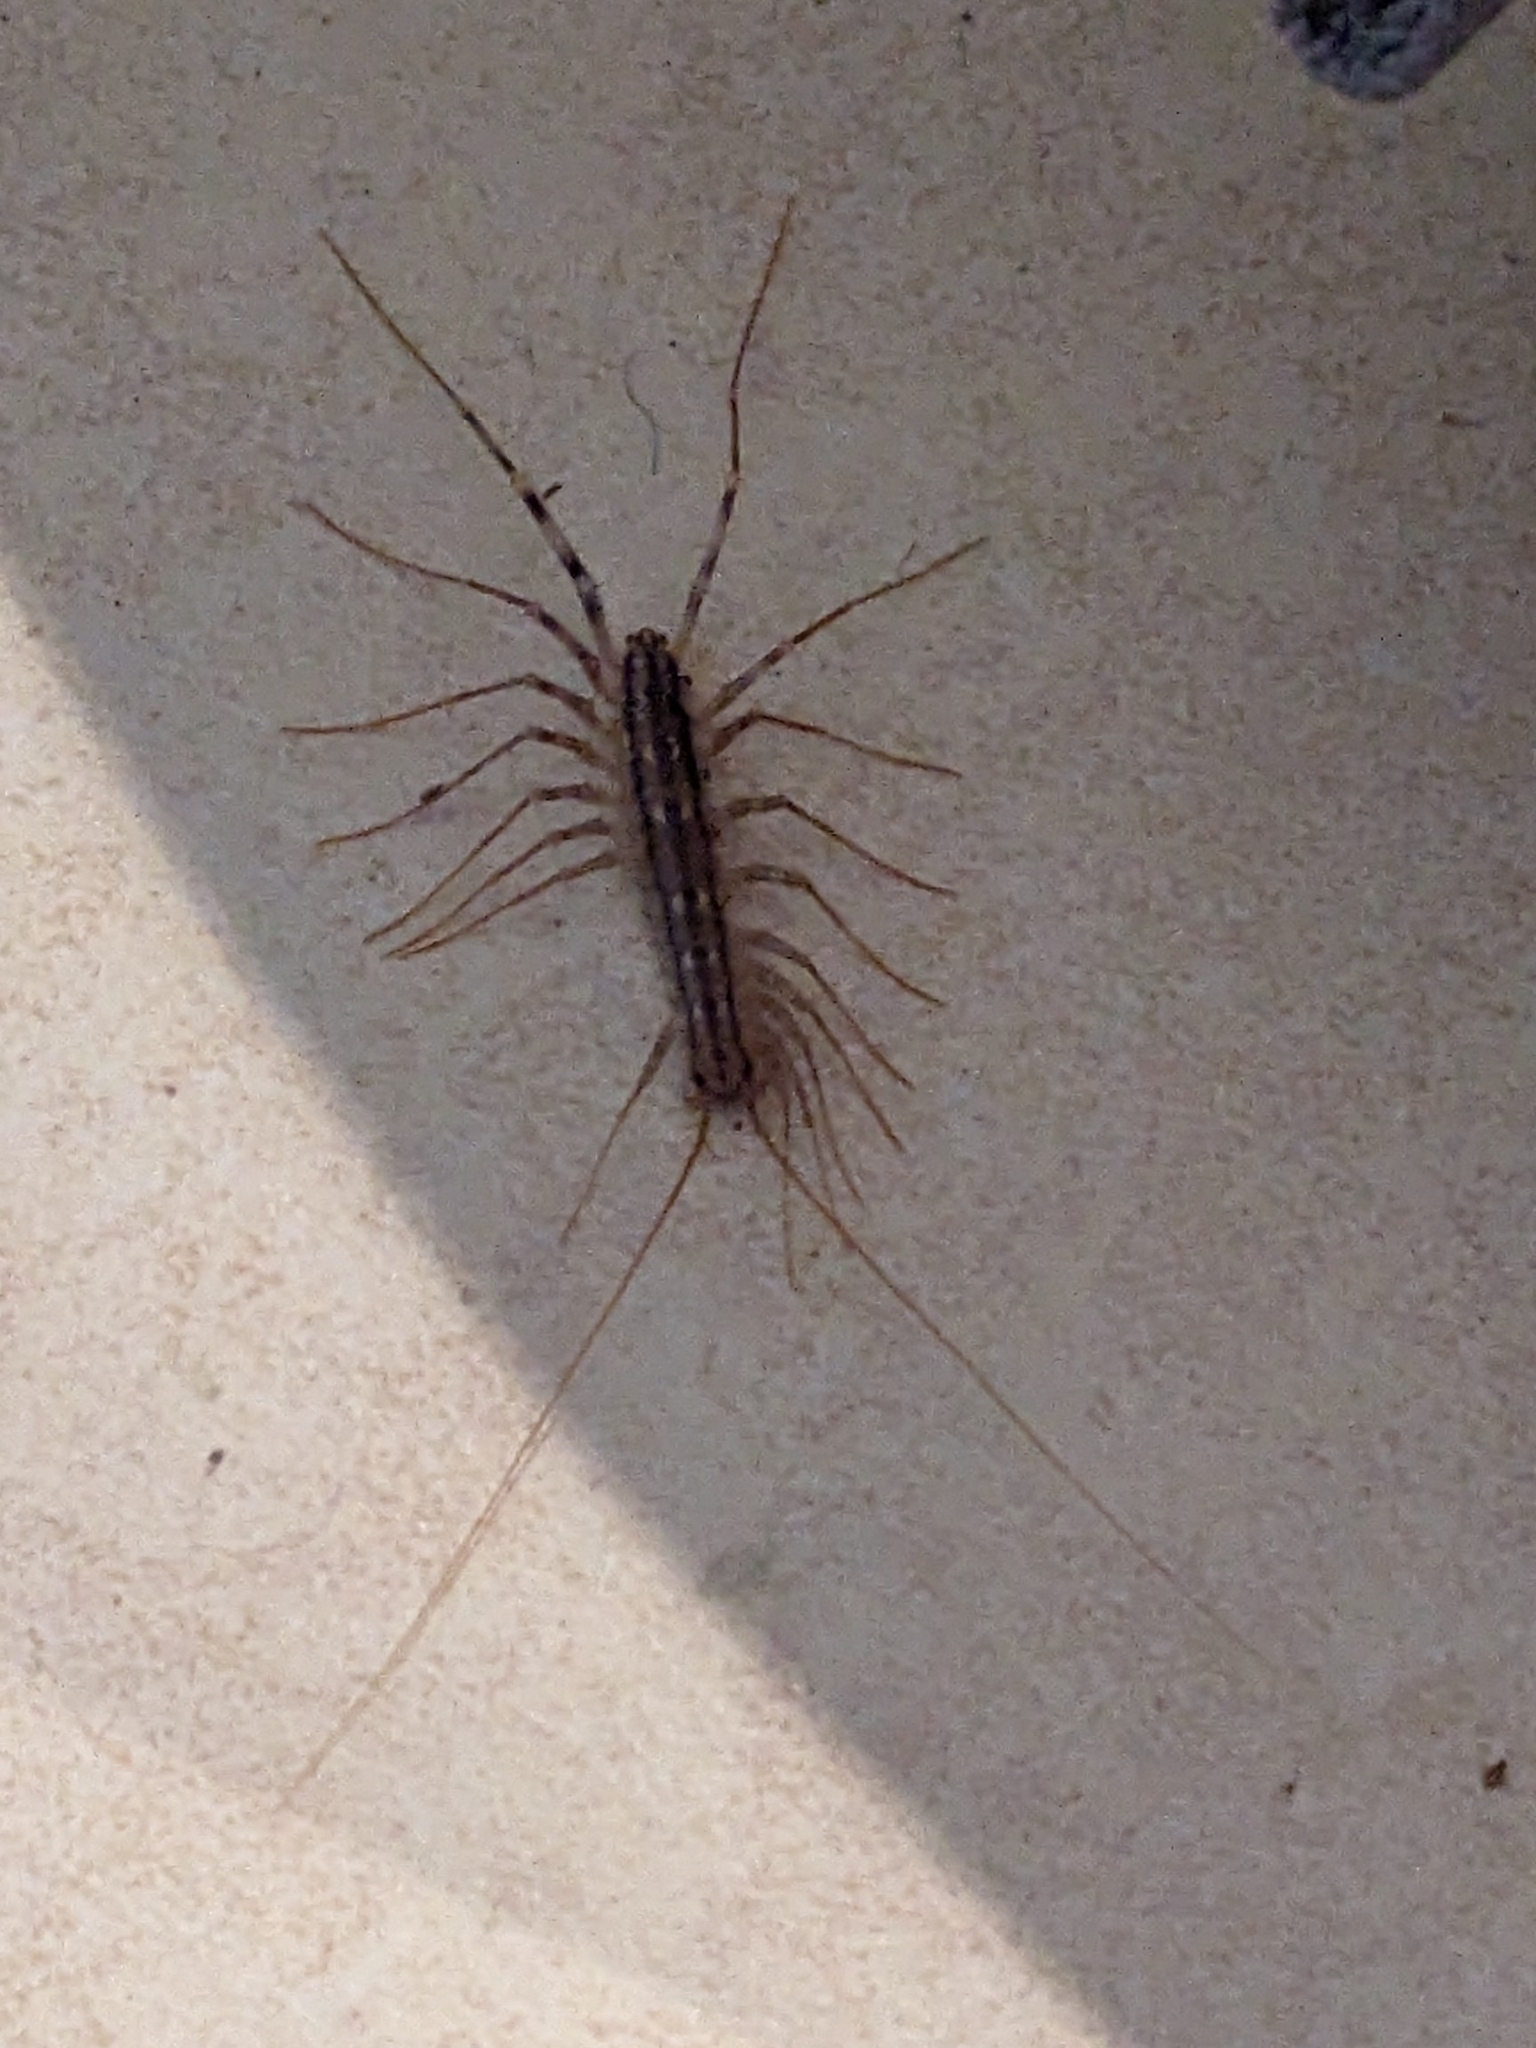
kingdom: Animalia
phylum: Arthropoda
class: Chilopoda
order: Scutigeromorpha
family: Scutigeridae
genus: Scutigera
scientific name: Scutigera coleoptrata
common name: House centipede
